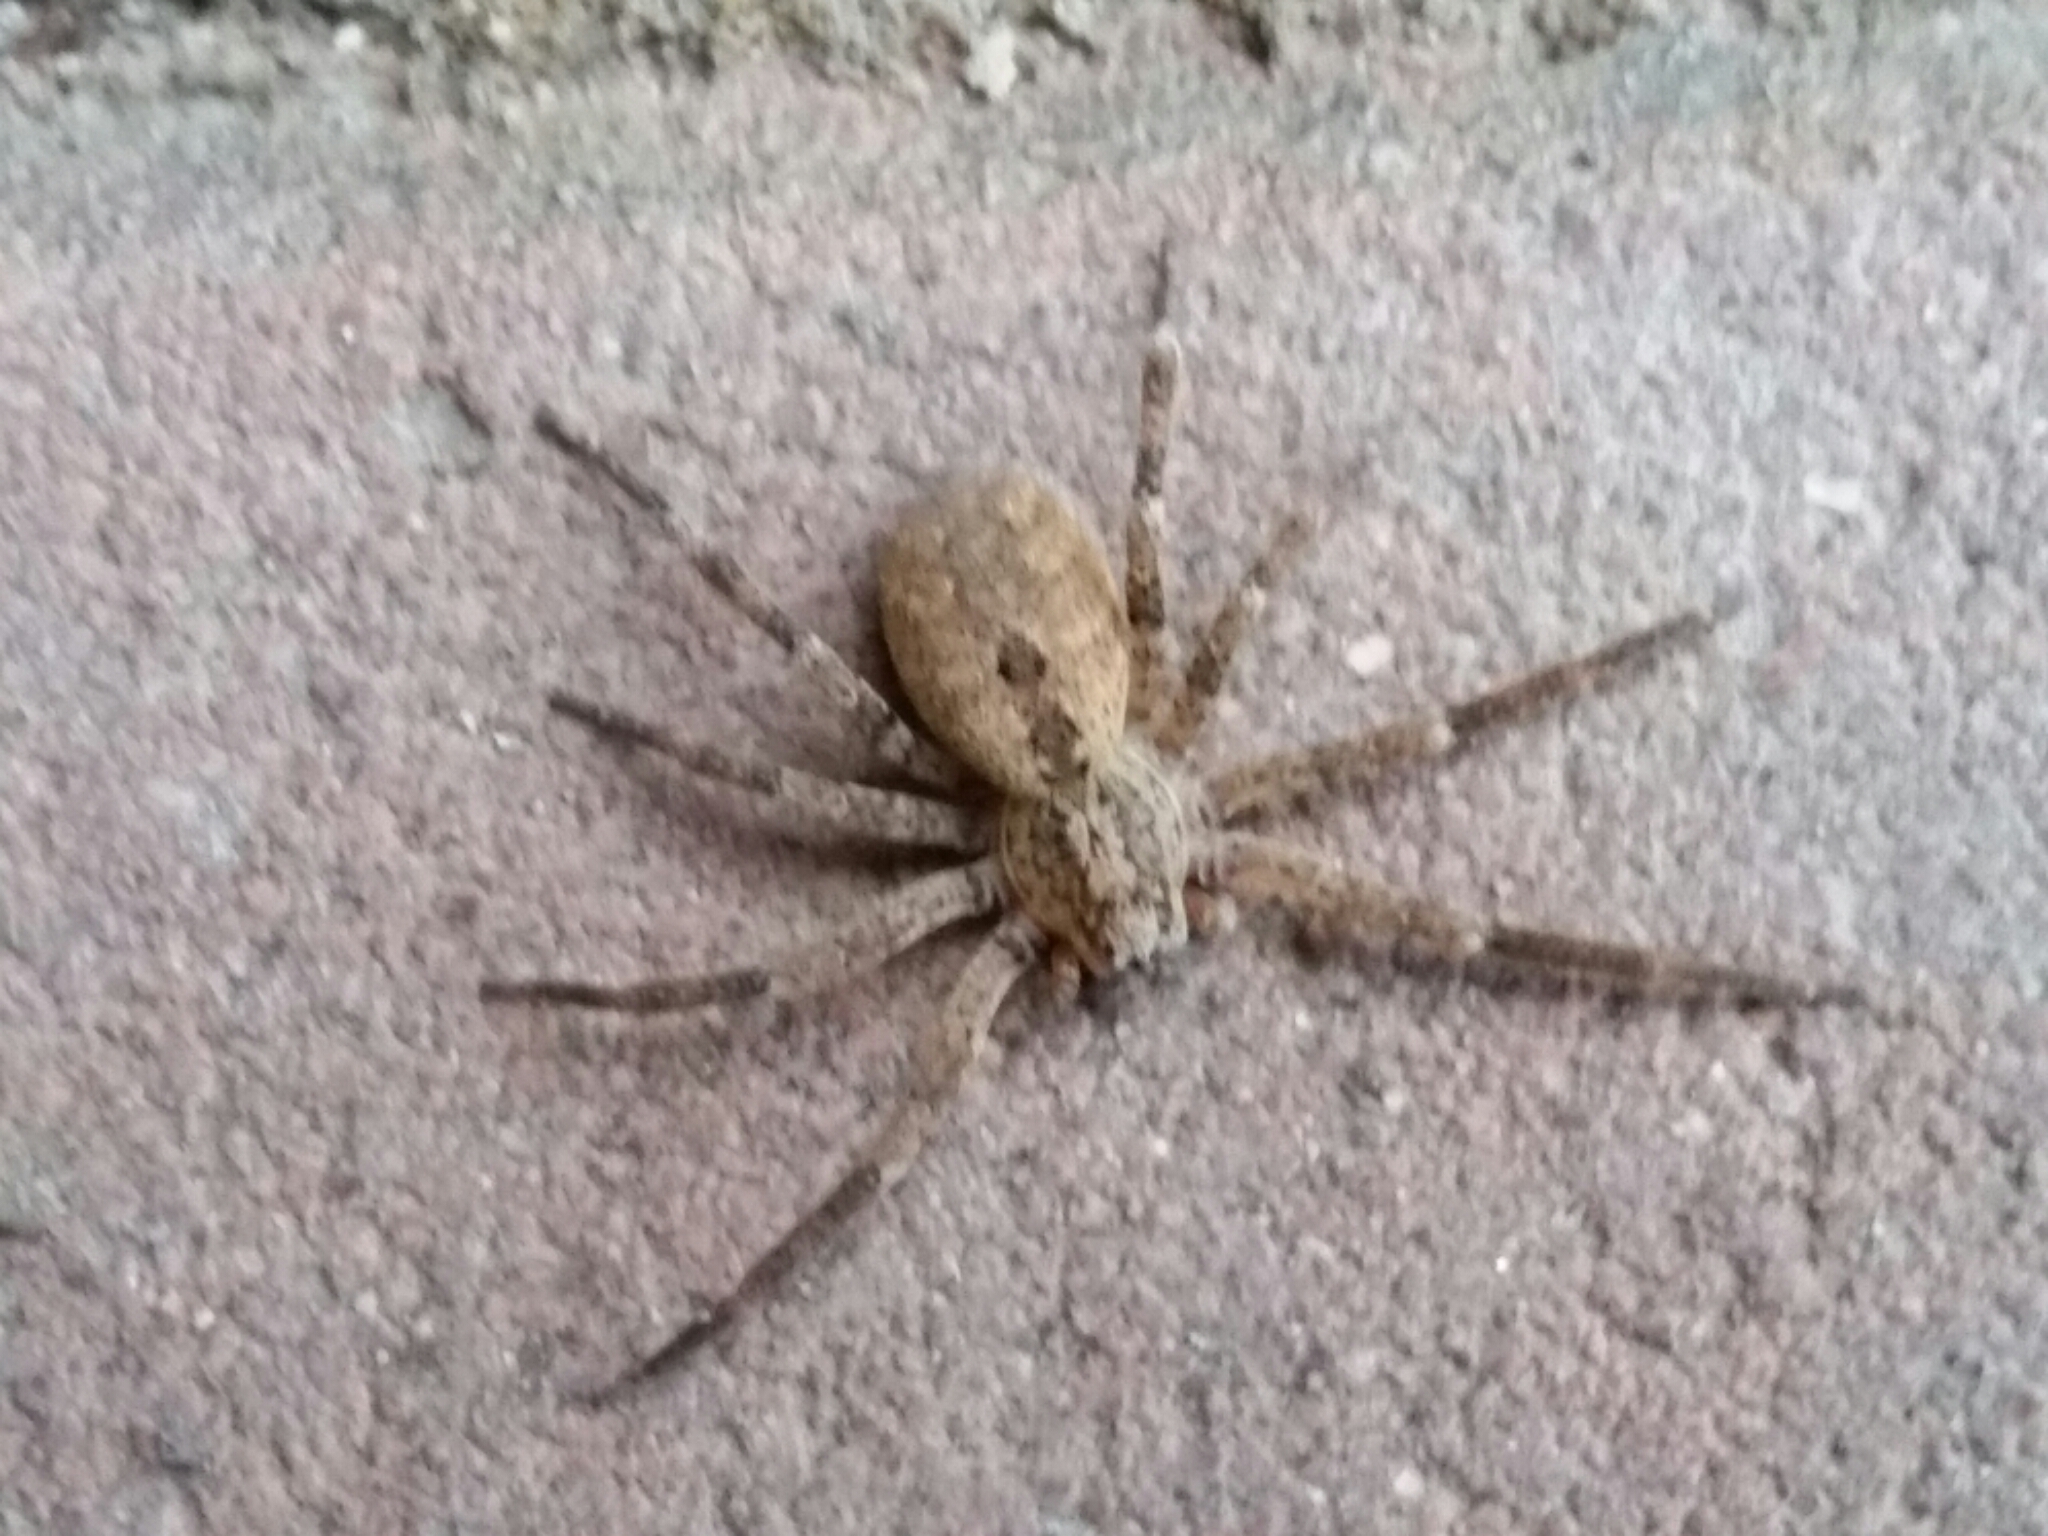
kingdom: Animalia
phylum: Arthropoda
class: Arachnida
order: Araneae
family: Zoropsidae
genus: Zoropsis
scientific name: Zoropsis spinimana
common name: Zoropsid spider
